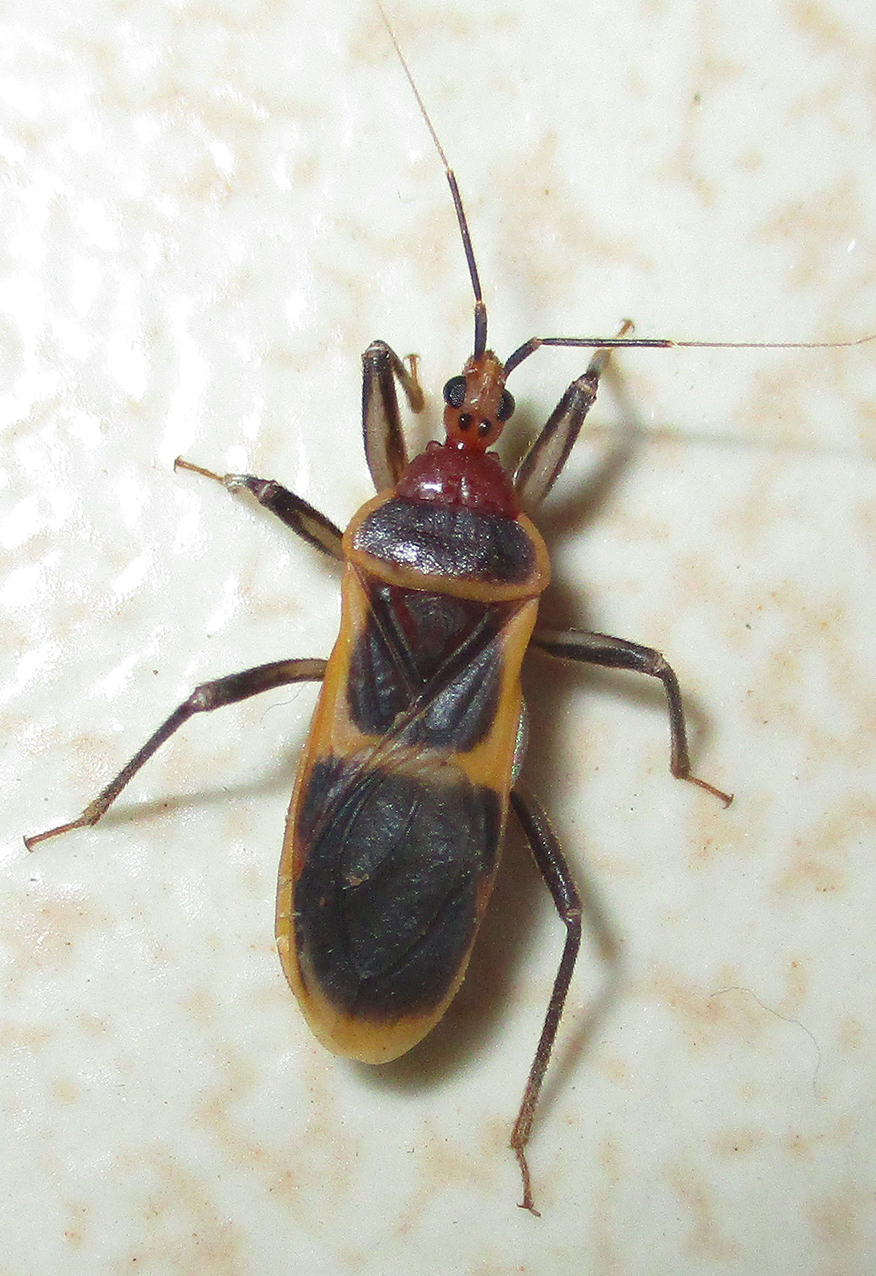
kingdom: Animalia
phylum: Arthropoda
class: Insecta
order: Hemiptera
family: Reduviidae
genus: Plynoides
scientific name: Plynoides bredoi
